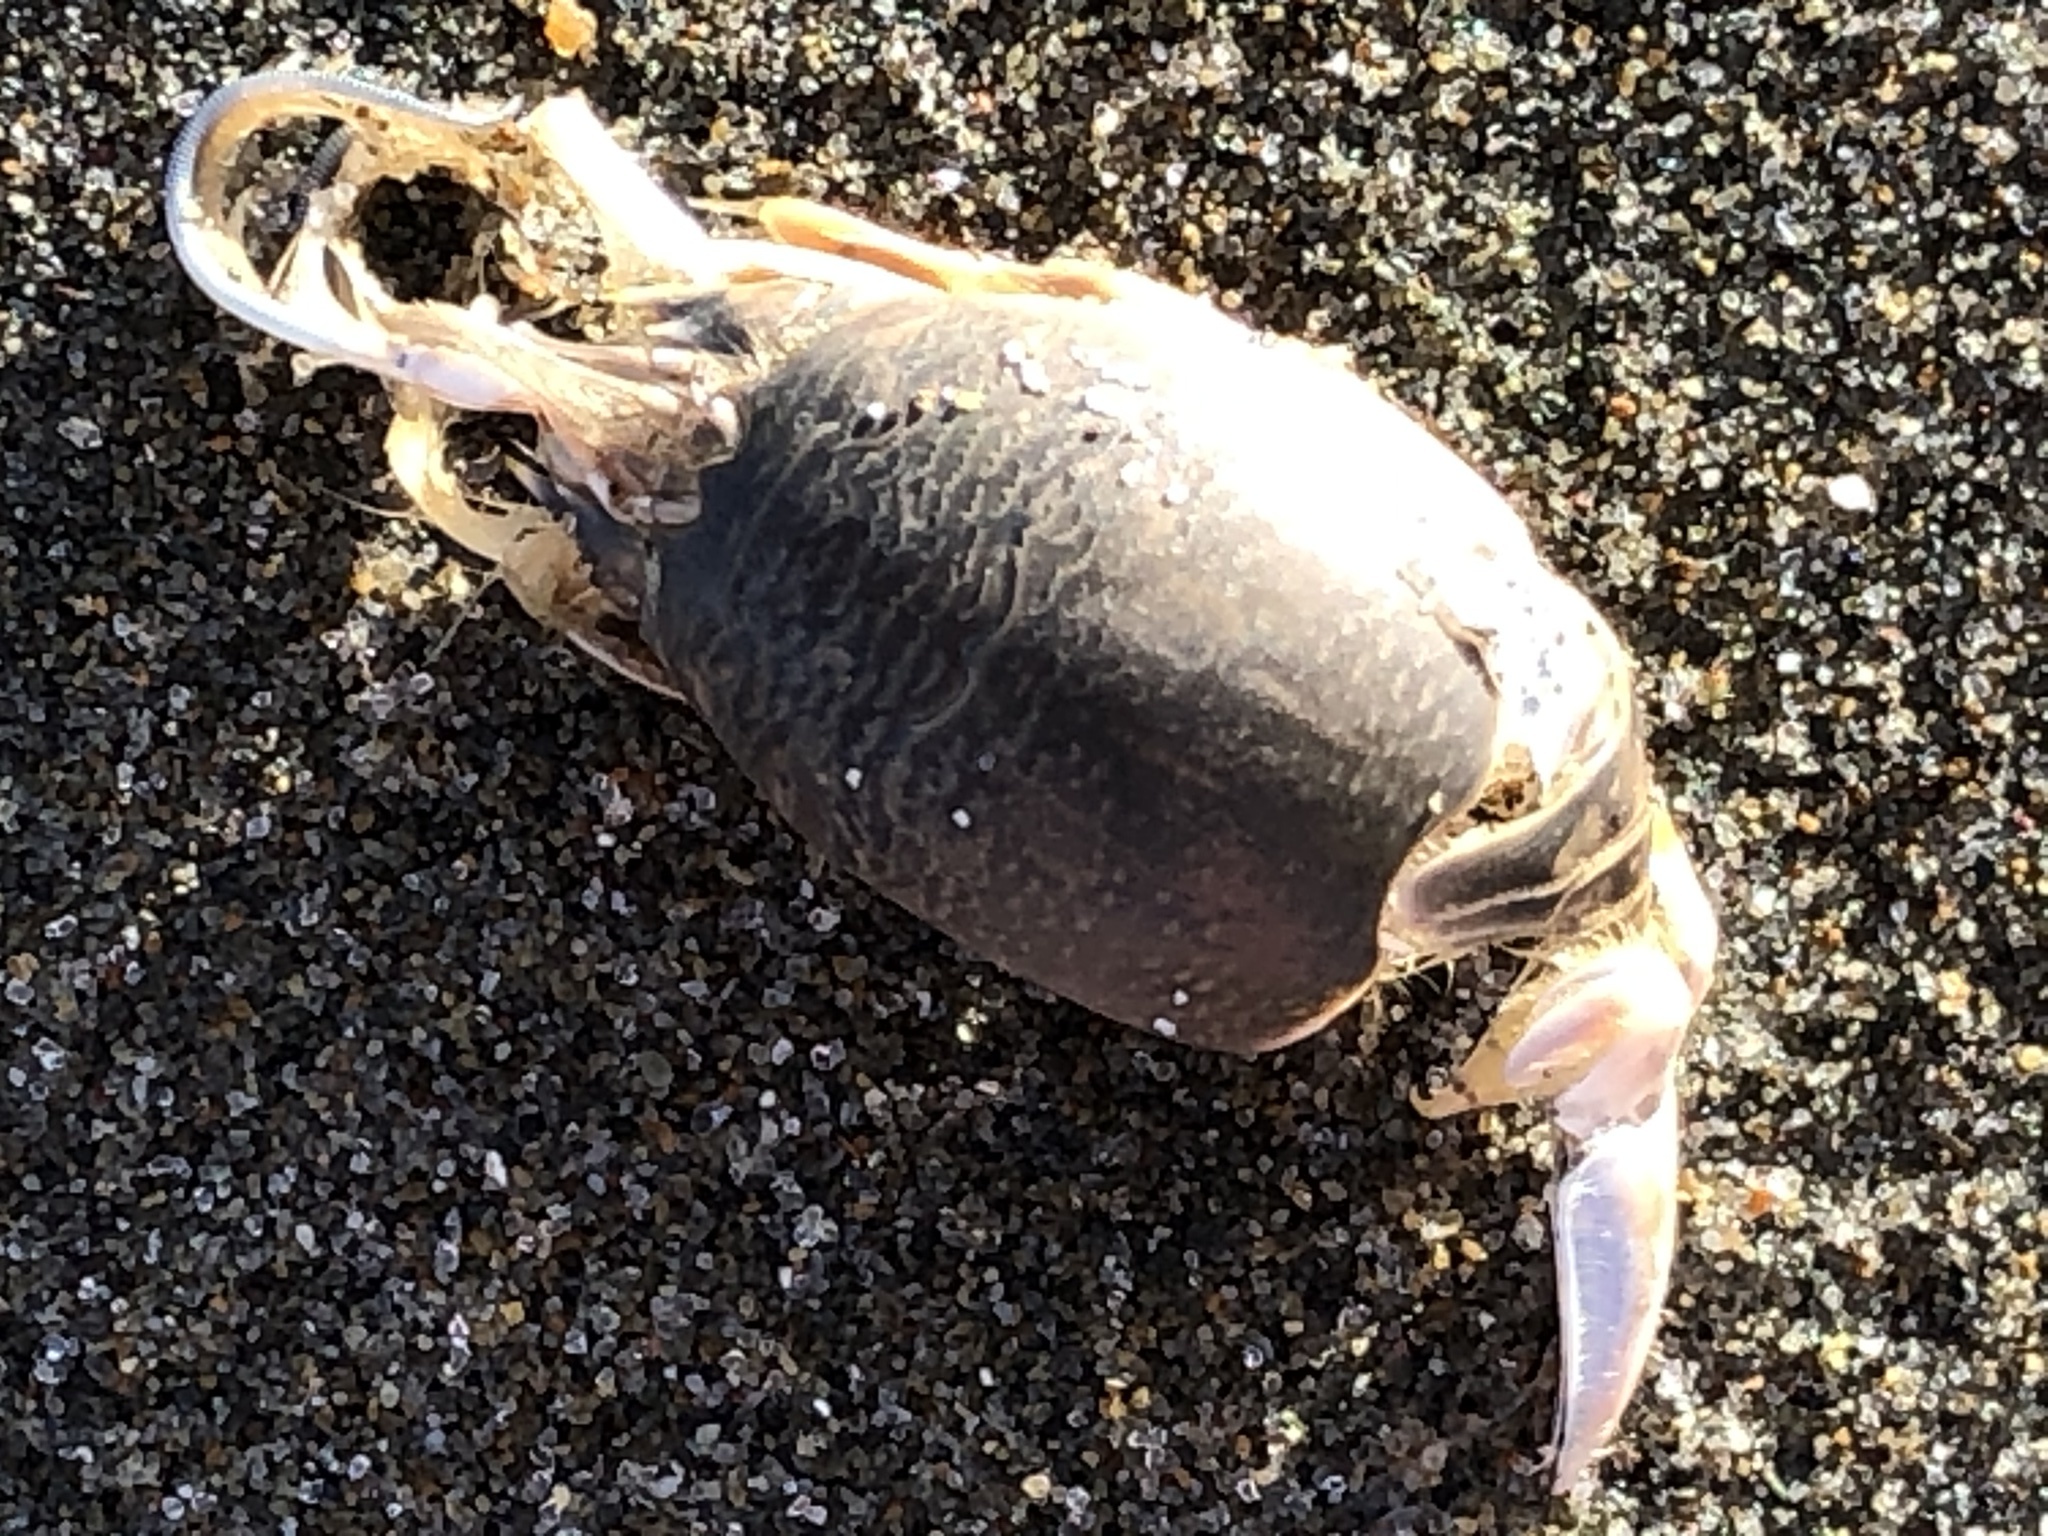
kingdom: Animalia
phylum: Arthropoda
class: Malacostraca
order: Decapoda
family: Hippidae
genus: Emerita
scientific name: Emerita analoga
